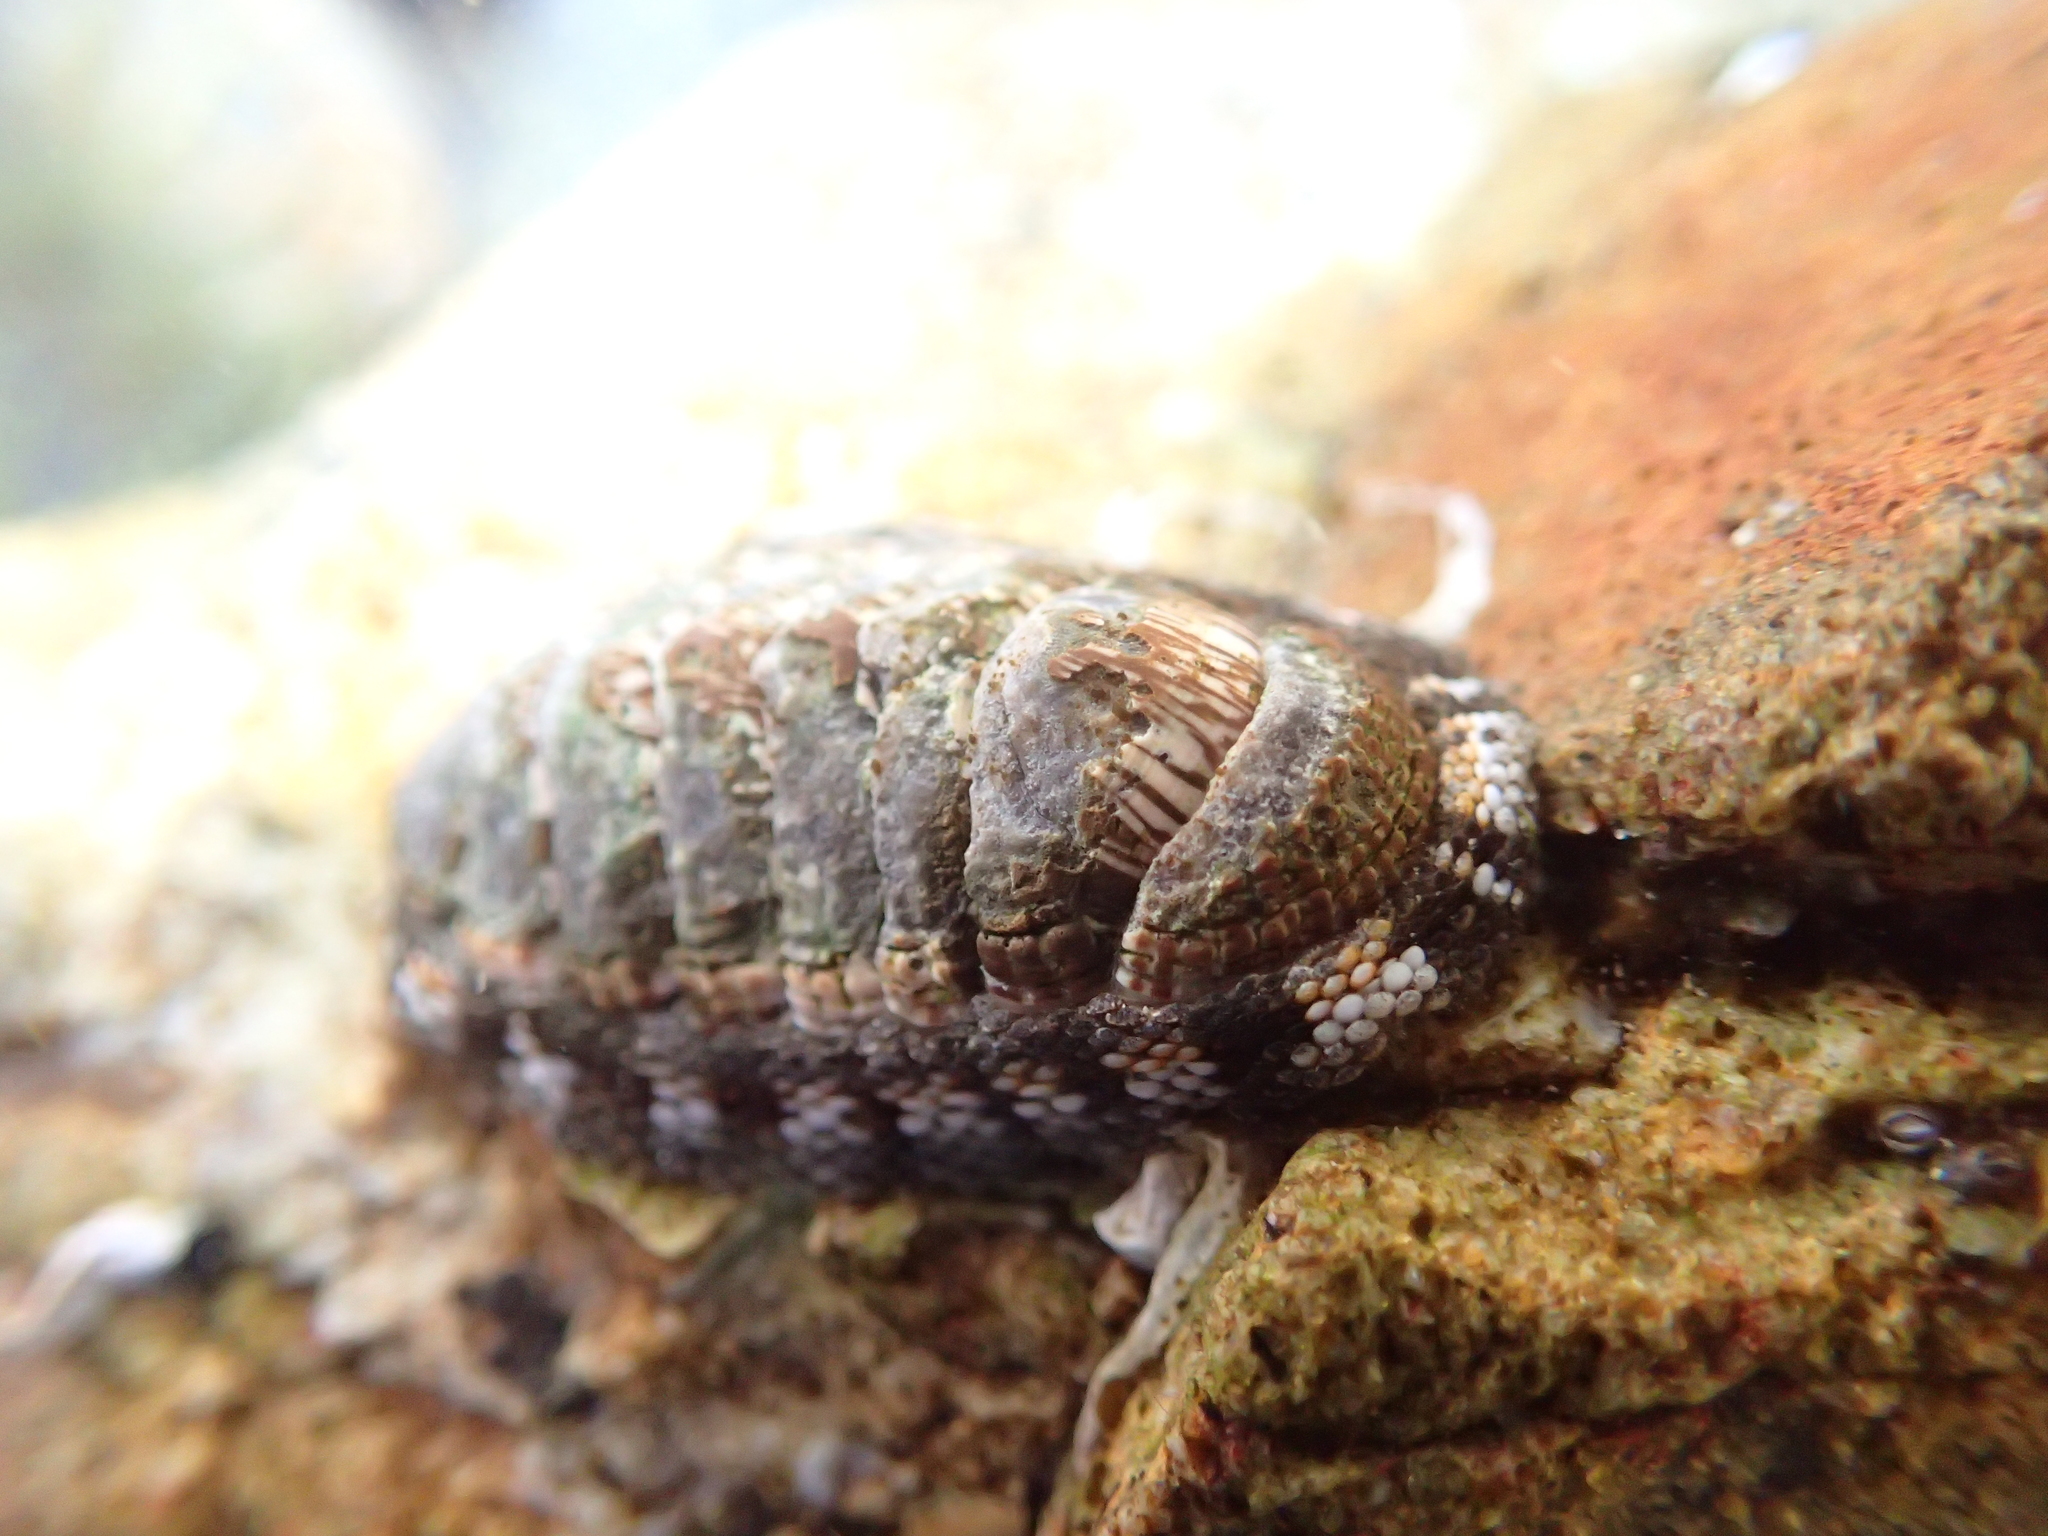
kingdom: Animalia
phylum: Mollusca
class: Polyplacophora
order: Chitonida
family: Chitonidae
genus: Sypharochiton
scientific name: Sypharochiton sinclairi
